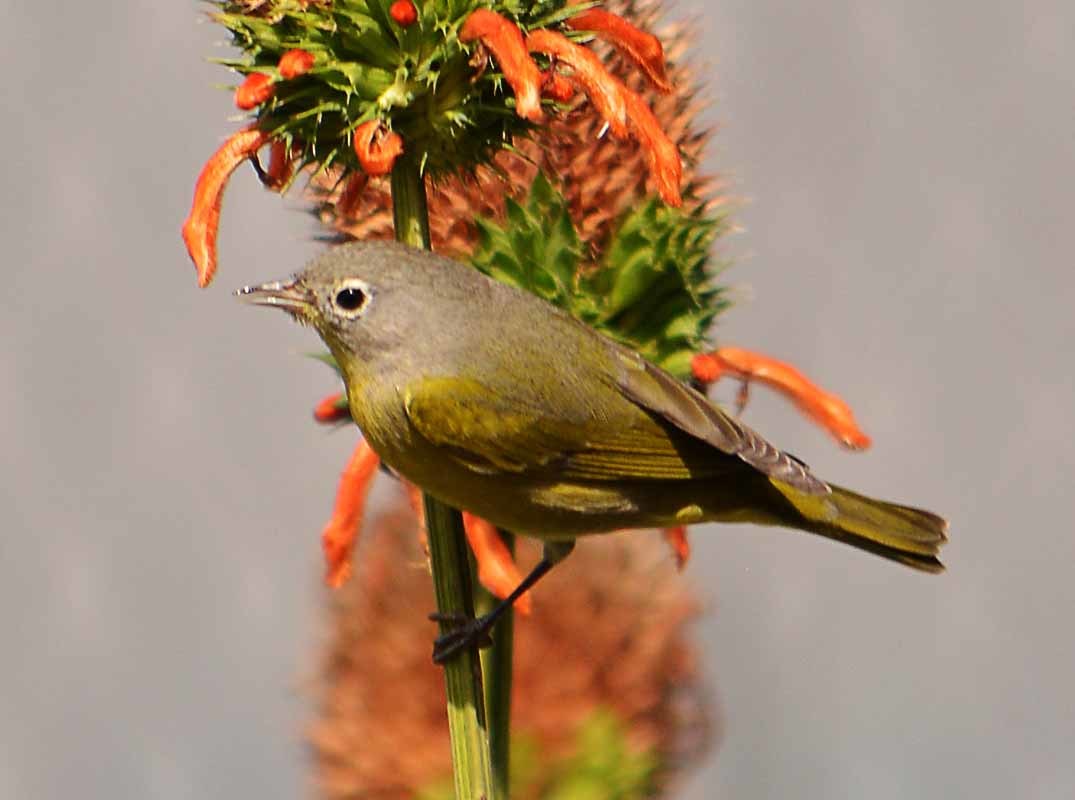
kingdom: Animalia
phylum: Chordata
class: Aves
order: Passeriformes
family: Parulidae
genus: Leiothlypis
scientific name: Leiothlypis ruficapilla
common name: Nashville warbler
